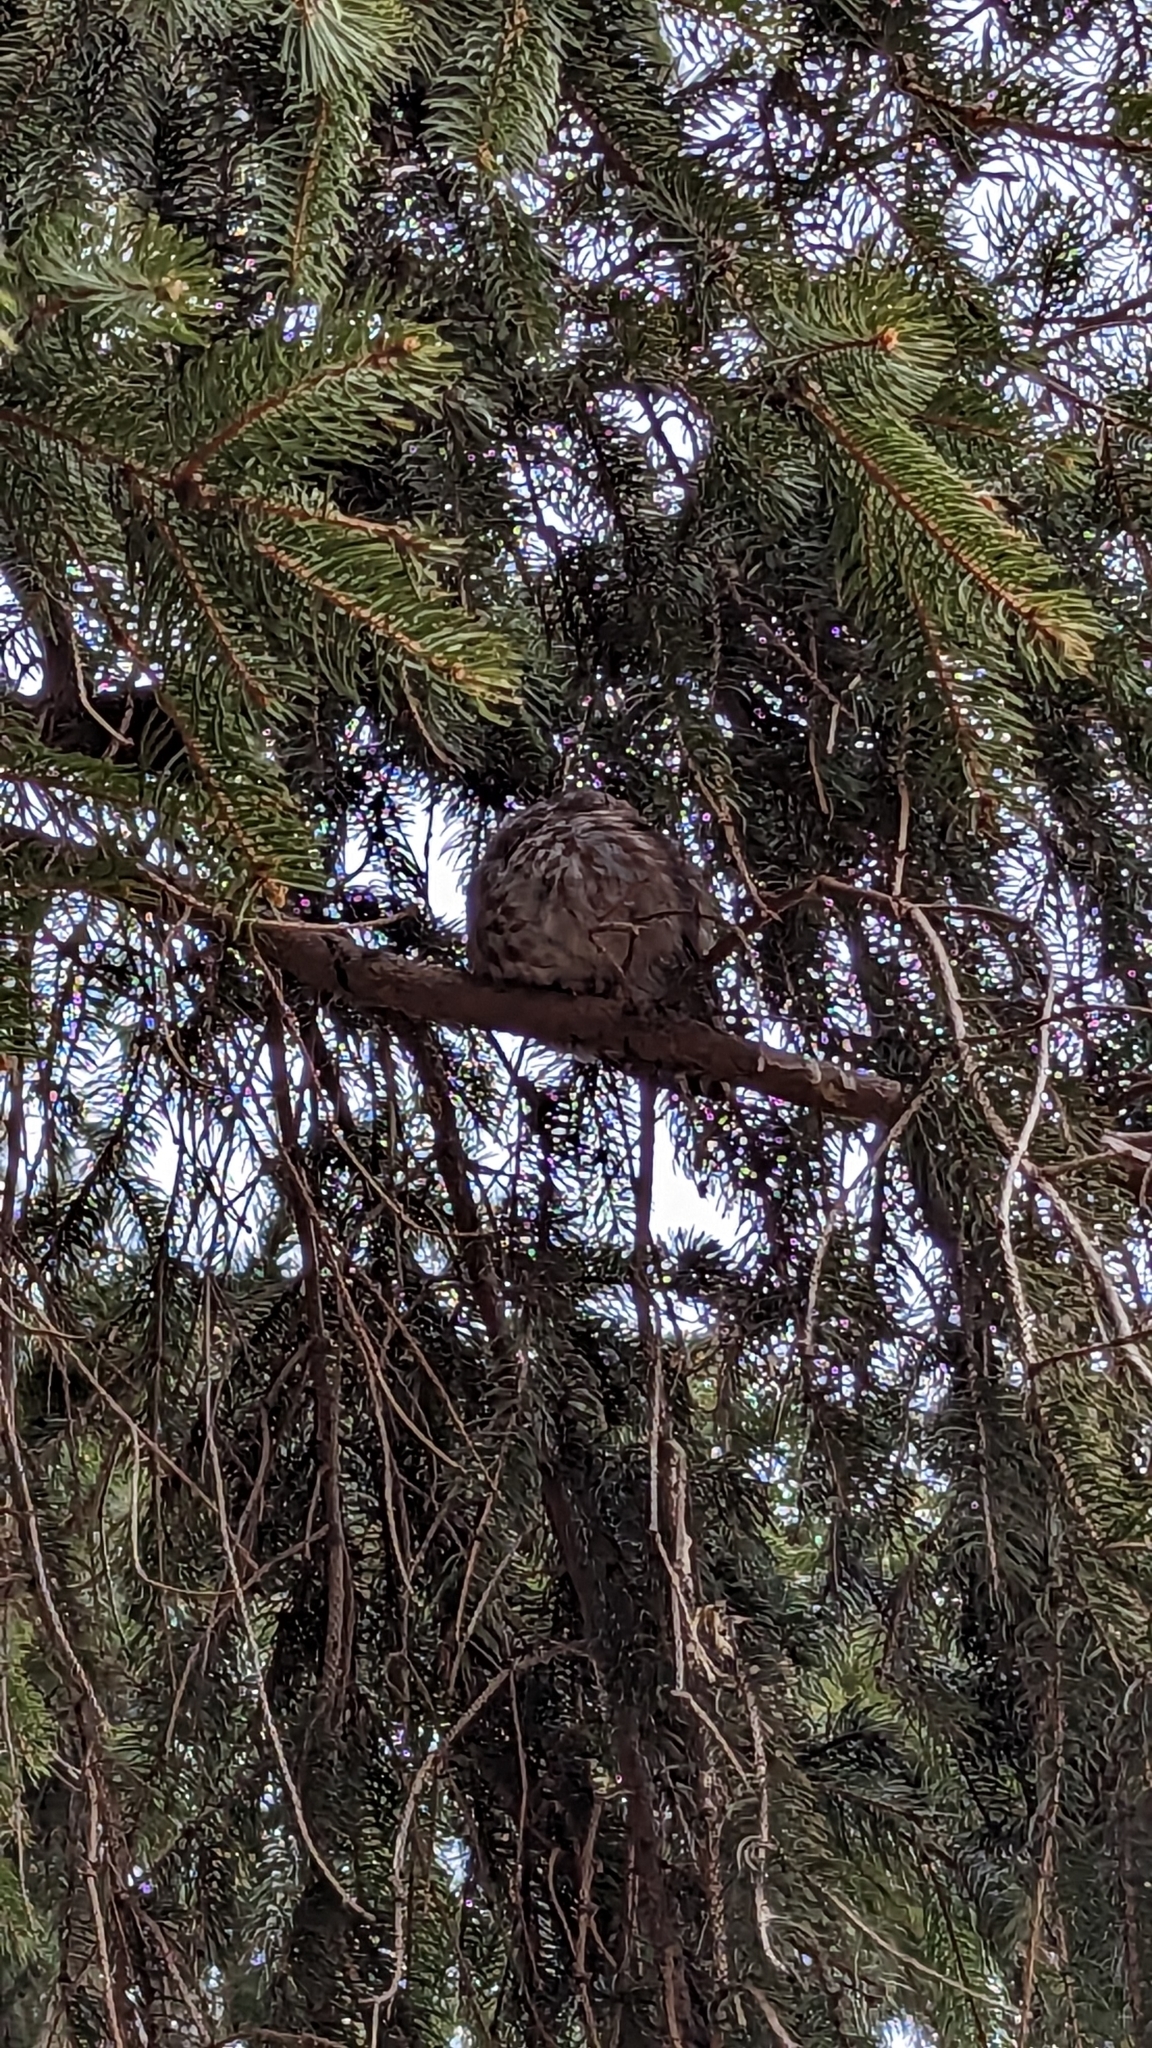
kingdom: Animalia
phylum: Chordata
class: Aves
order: Strigiformes
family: Strigidae
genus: Aegolius
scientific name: Aegolius acadicus
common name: Northern saw-whet owl
